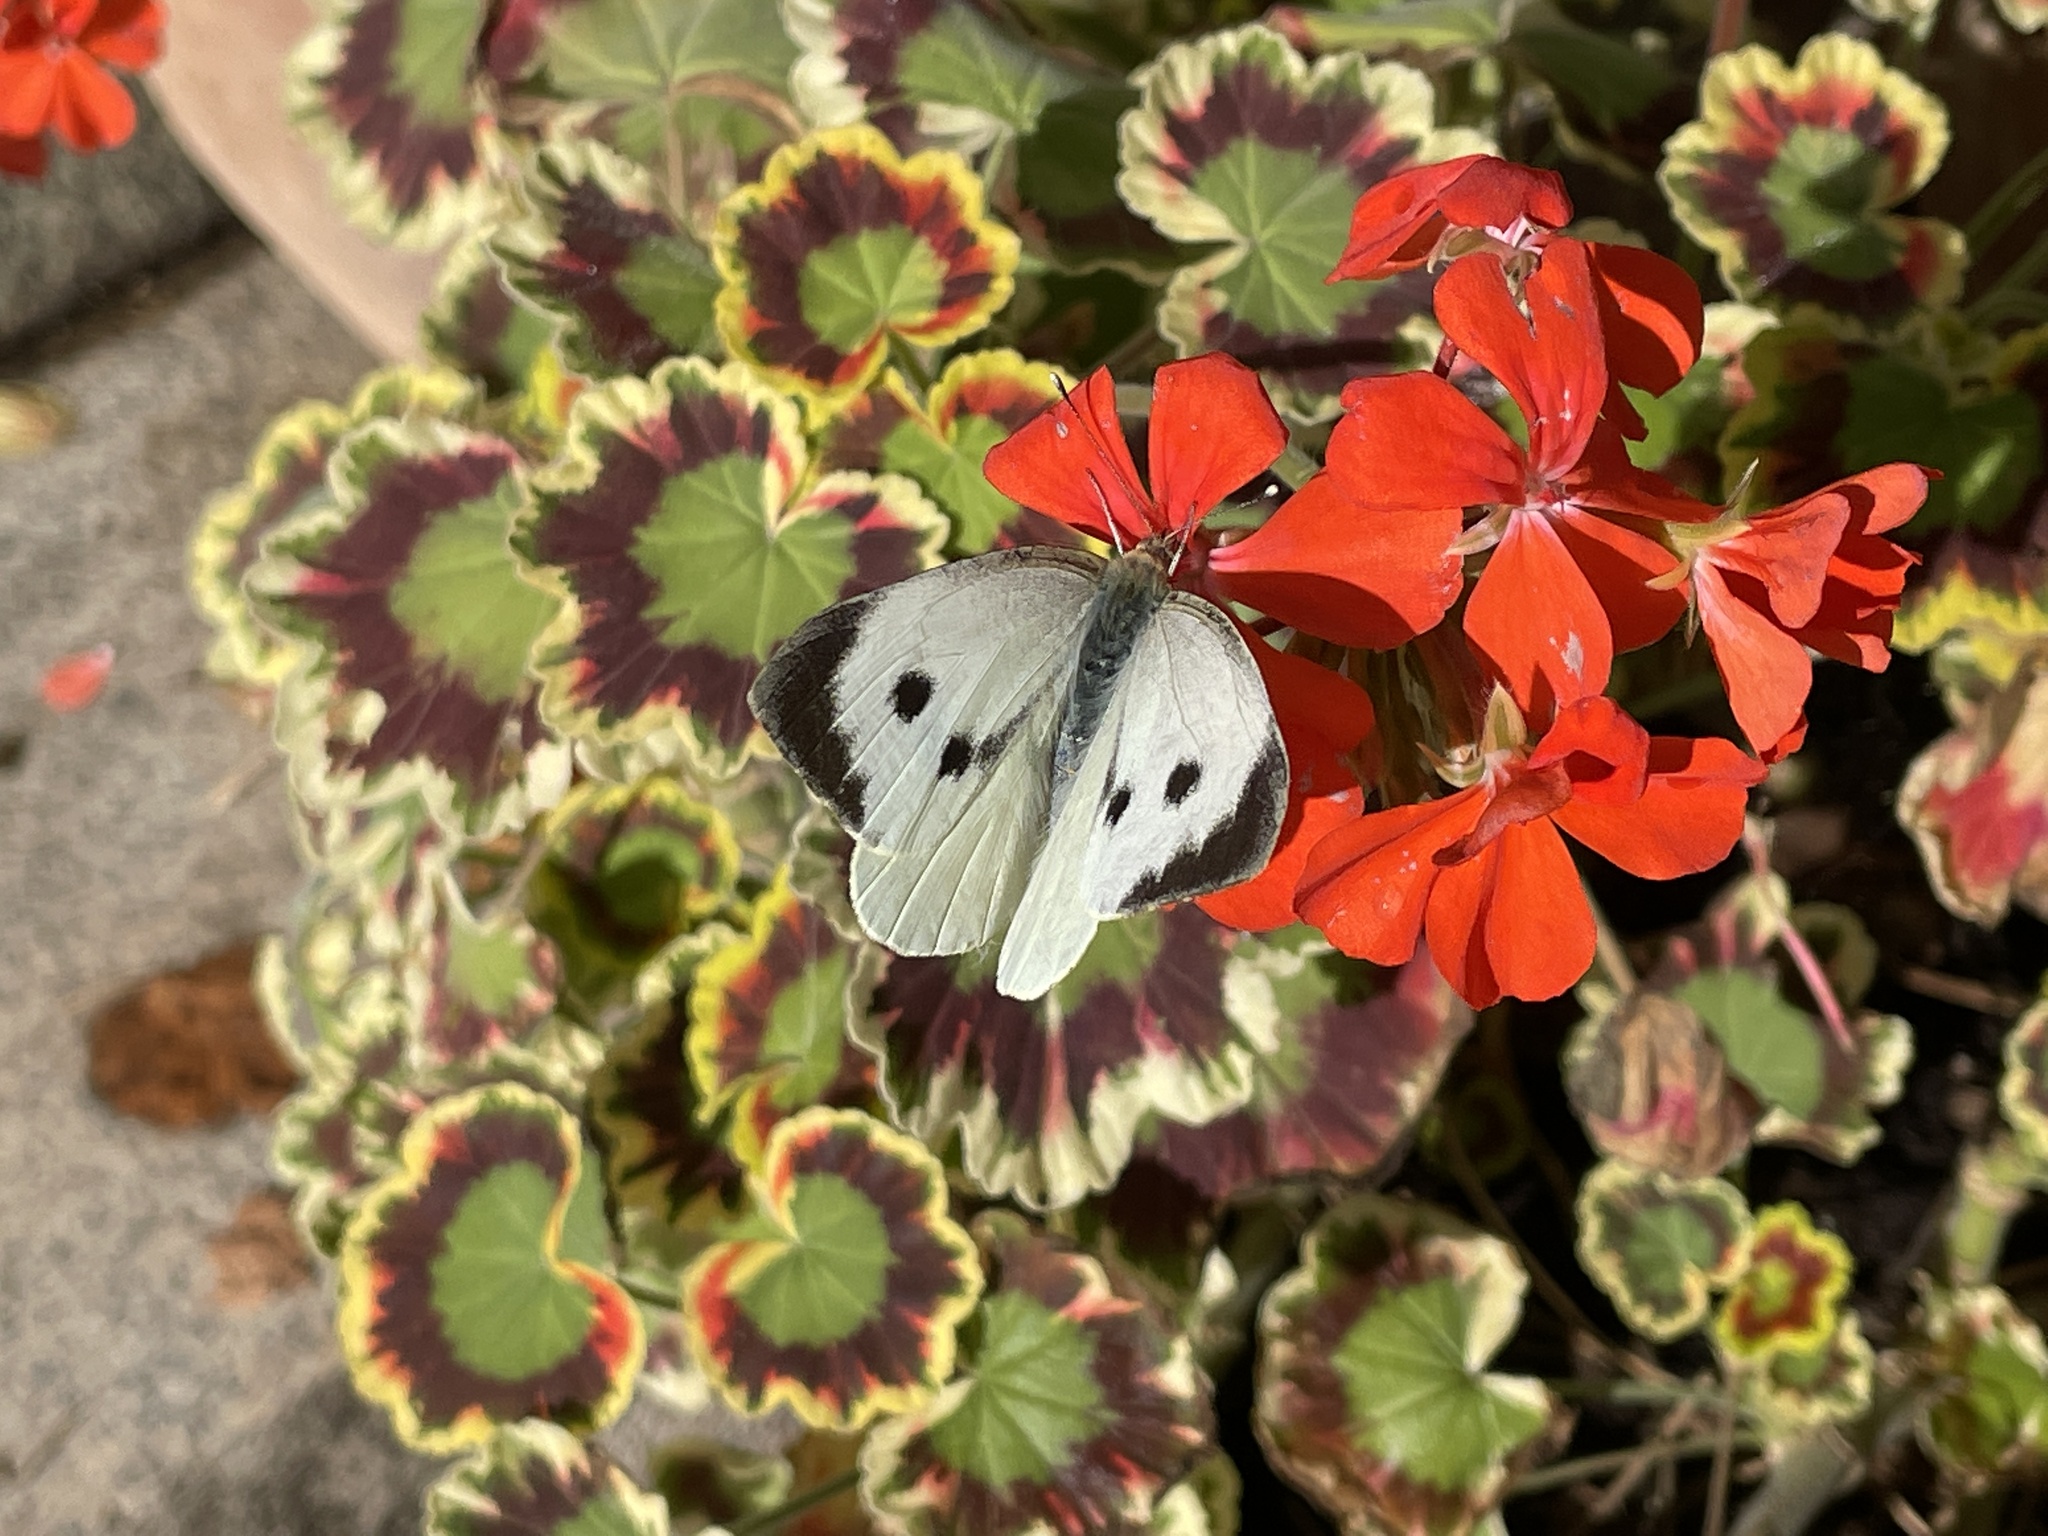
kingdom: Animalia
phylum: Arthropoda
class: Insecta
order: Lepidoptera
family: Pieridae
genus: Pieris
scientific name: Pieris brassicae
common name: Large white
